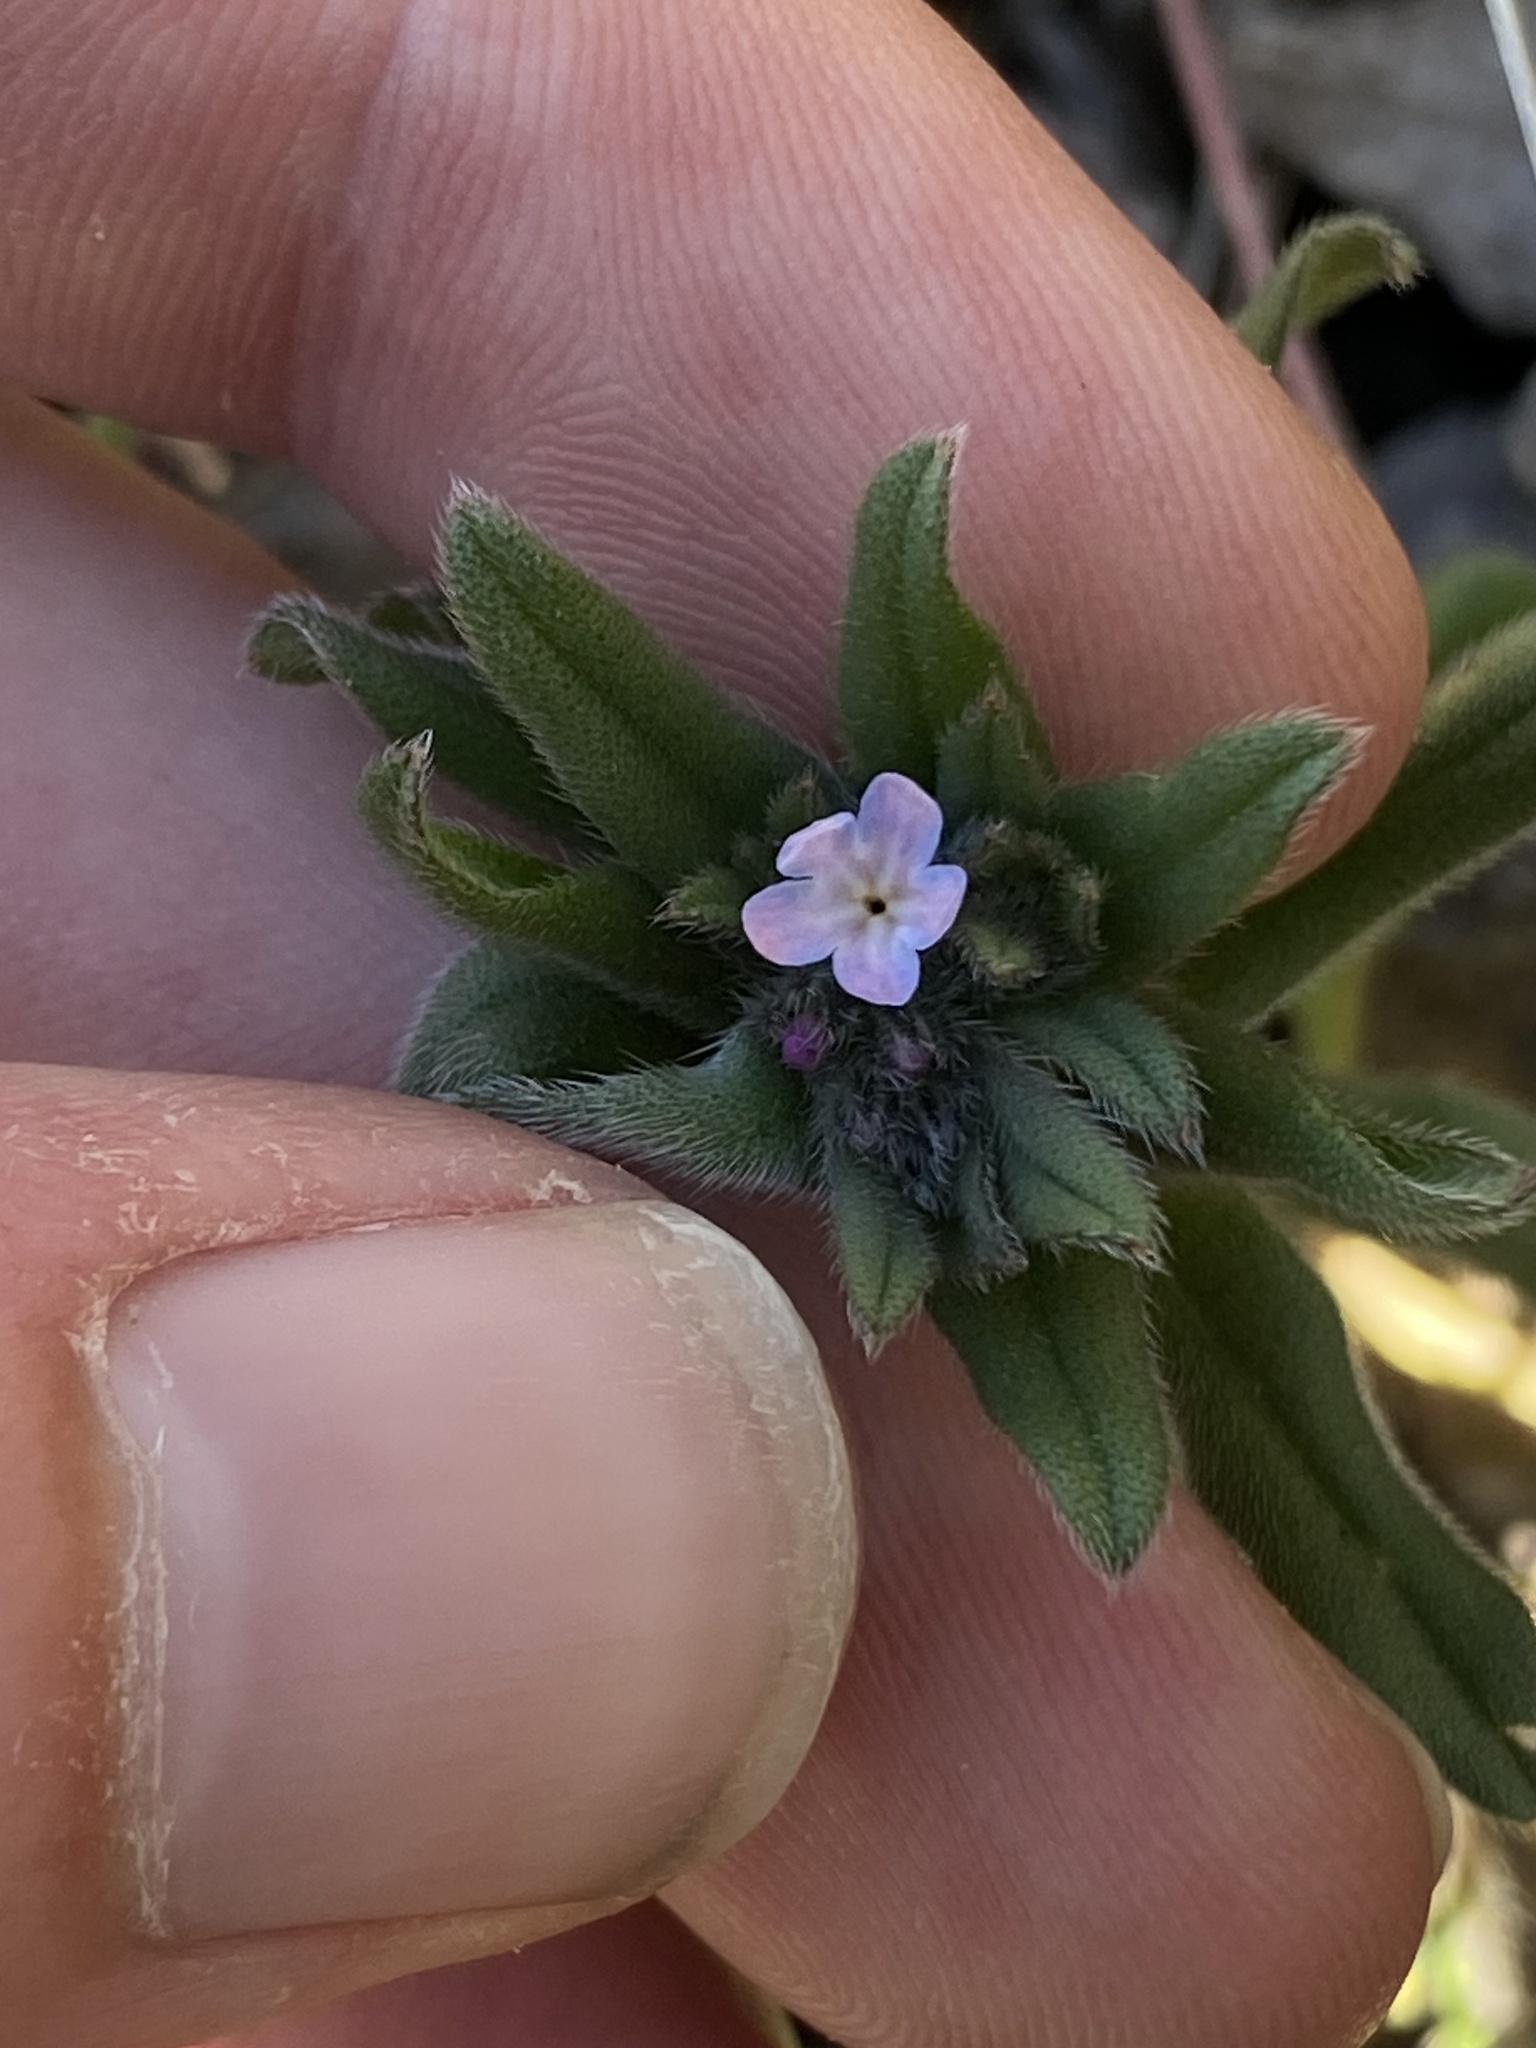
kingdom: Plantae
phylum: Tracheophyta
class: Magnoliopsida
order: Boraginales
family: Boraginaceae
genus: Buglossoides
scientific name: Buglossoides arvensis
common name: Corn gromwell
